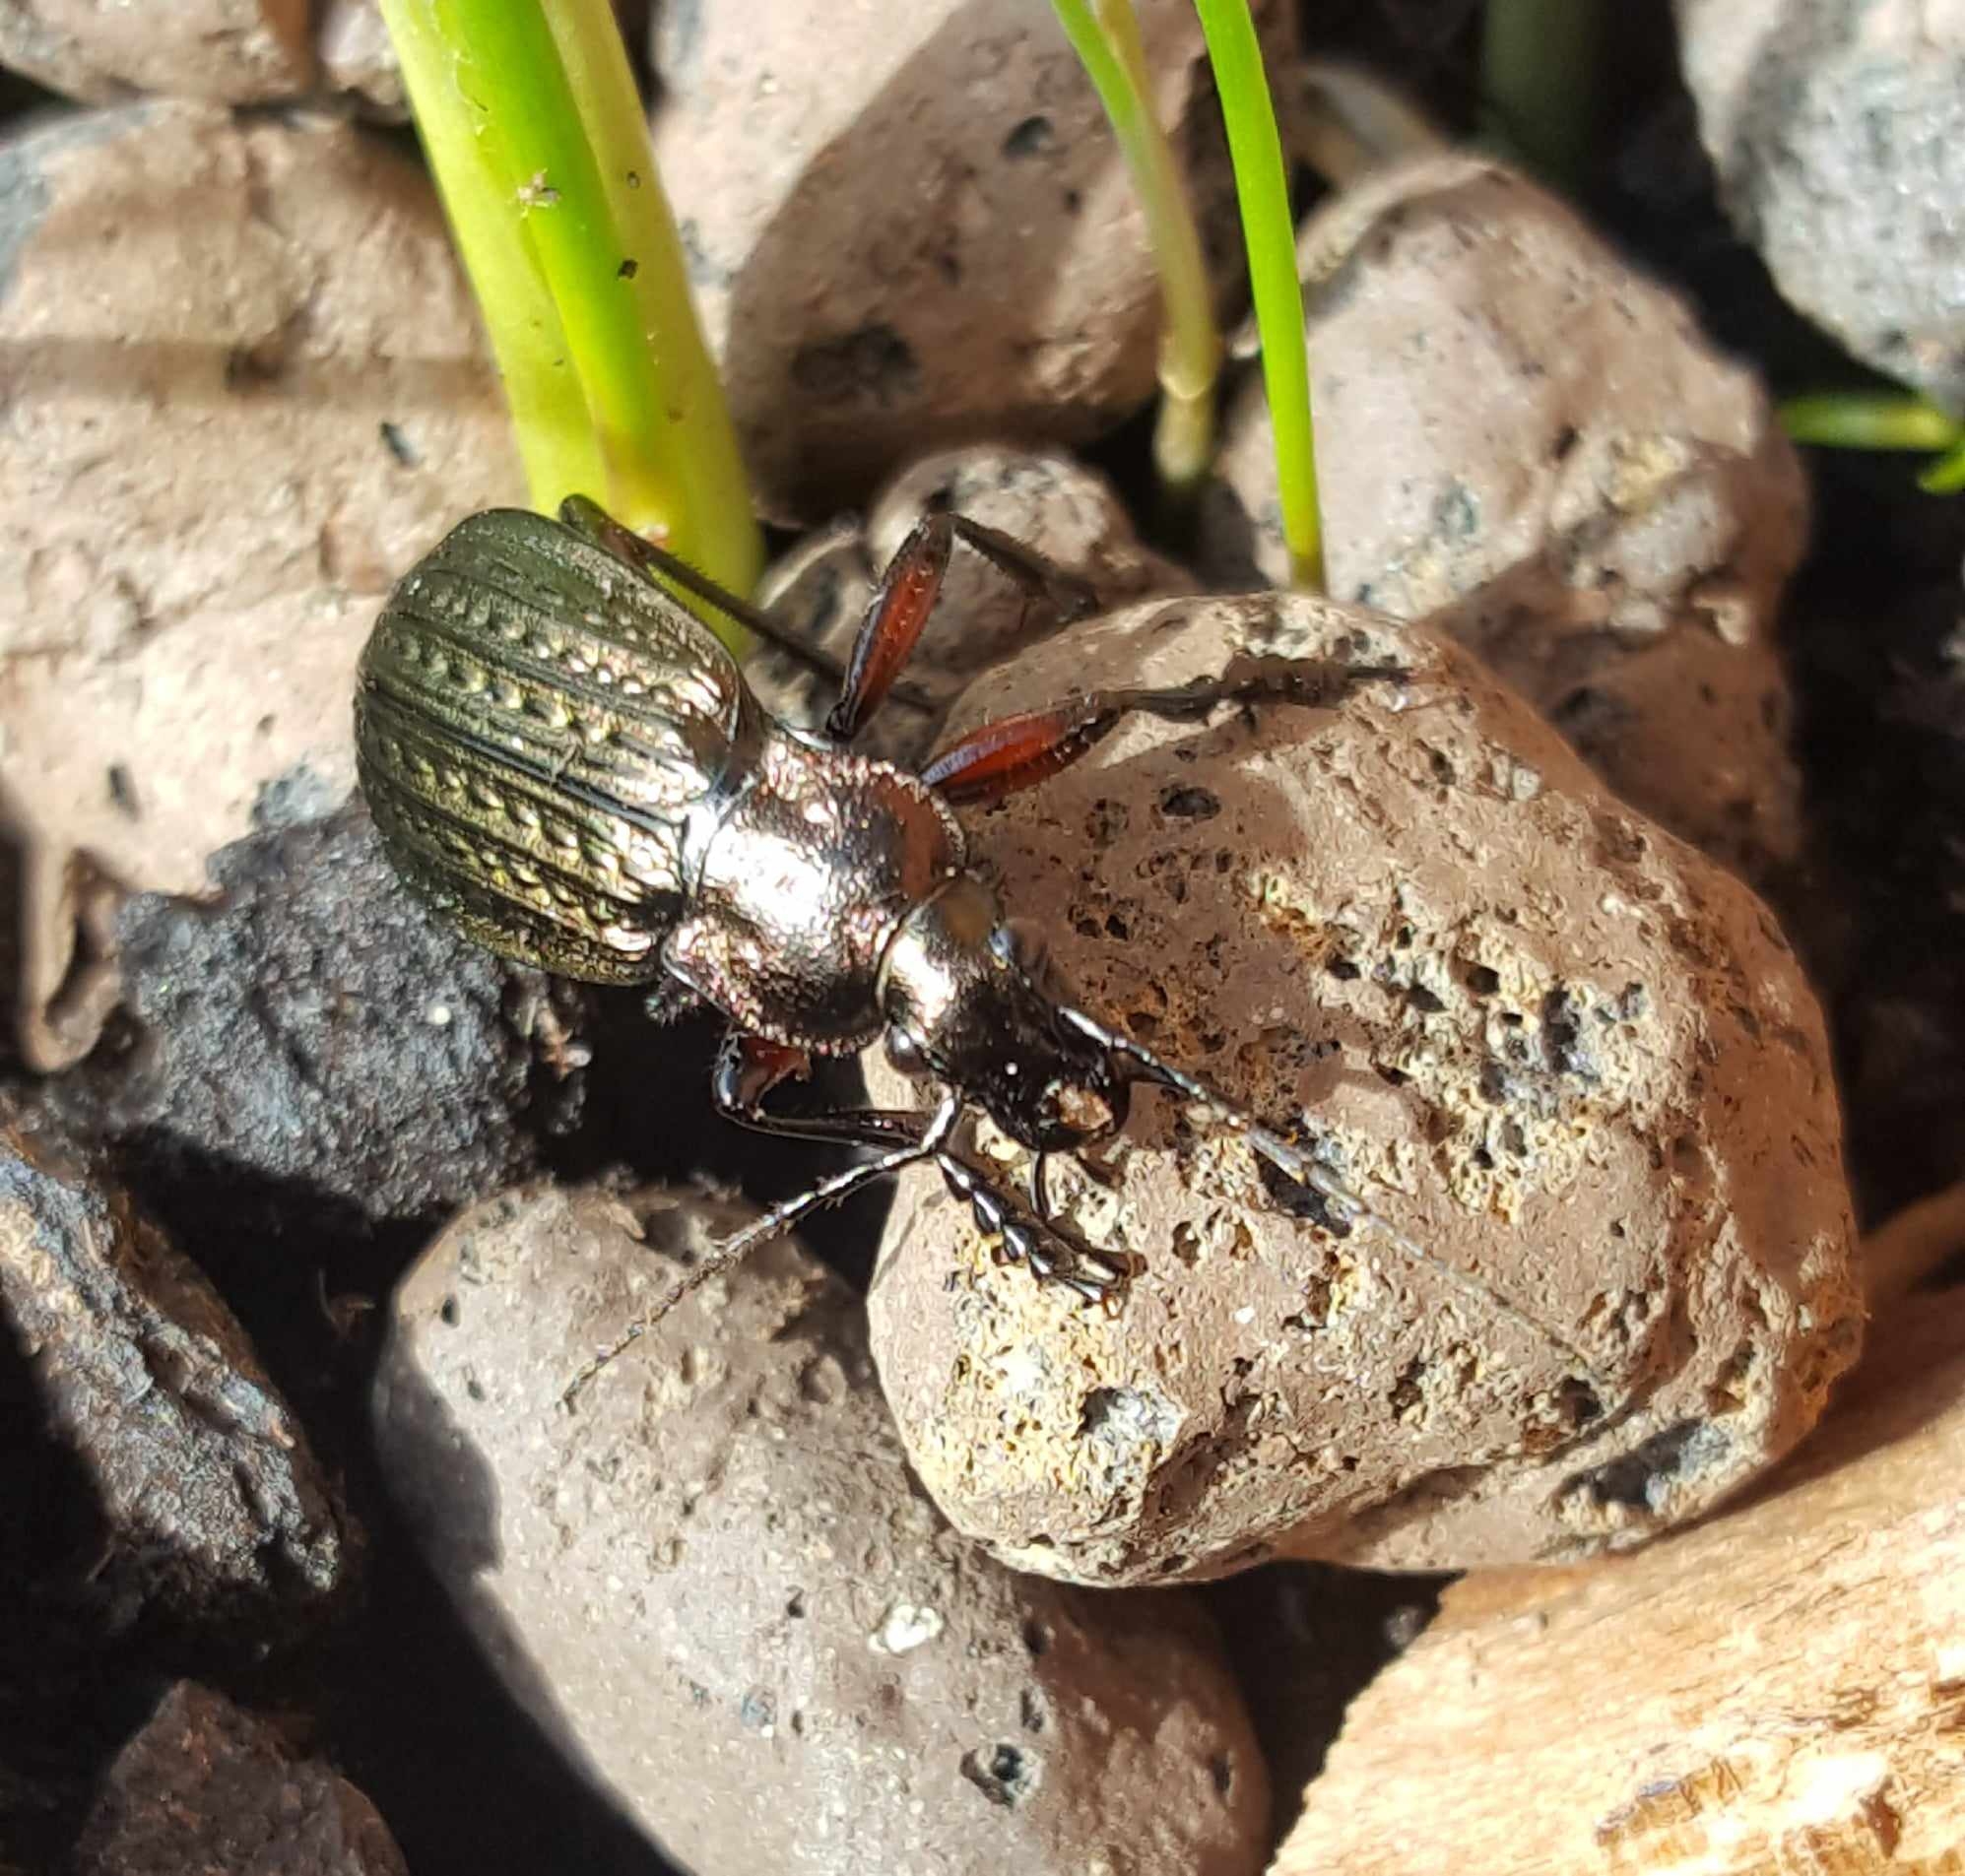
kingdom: Animalia
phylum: Arthropoda
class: Insecta
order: Coleoptera
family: Carabidae
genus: Carabus
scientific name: Carabus granulatus
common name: Granulate ground beetle
